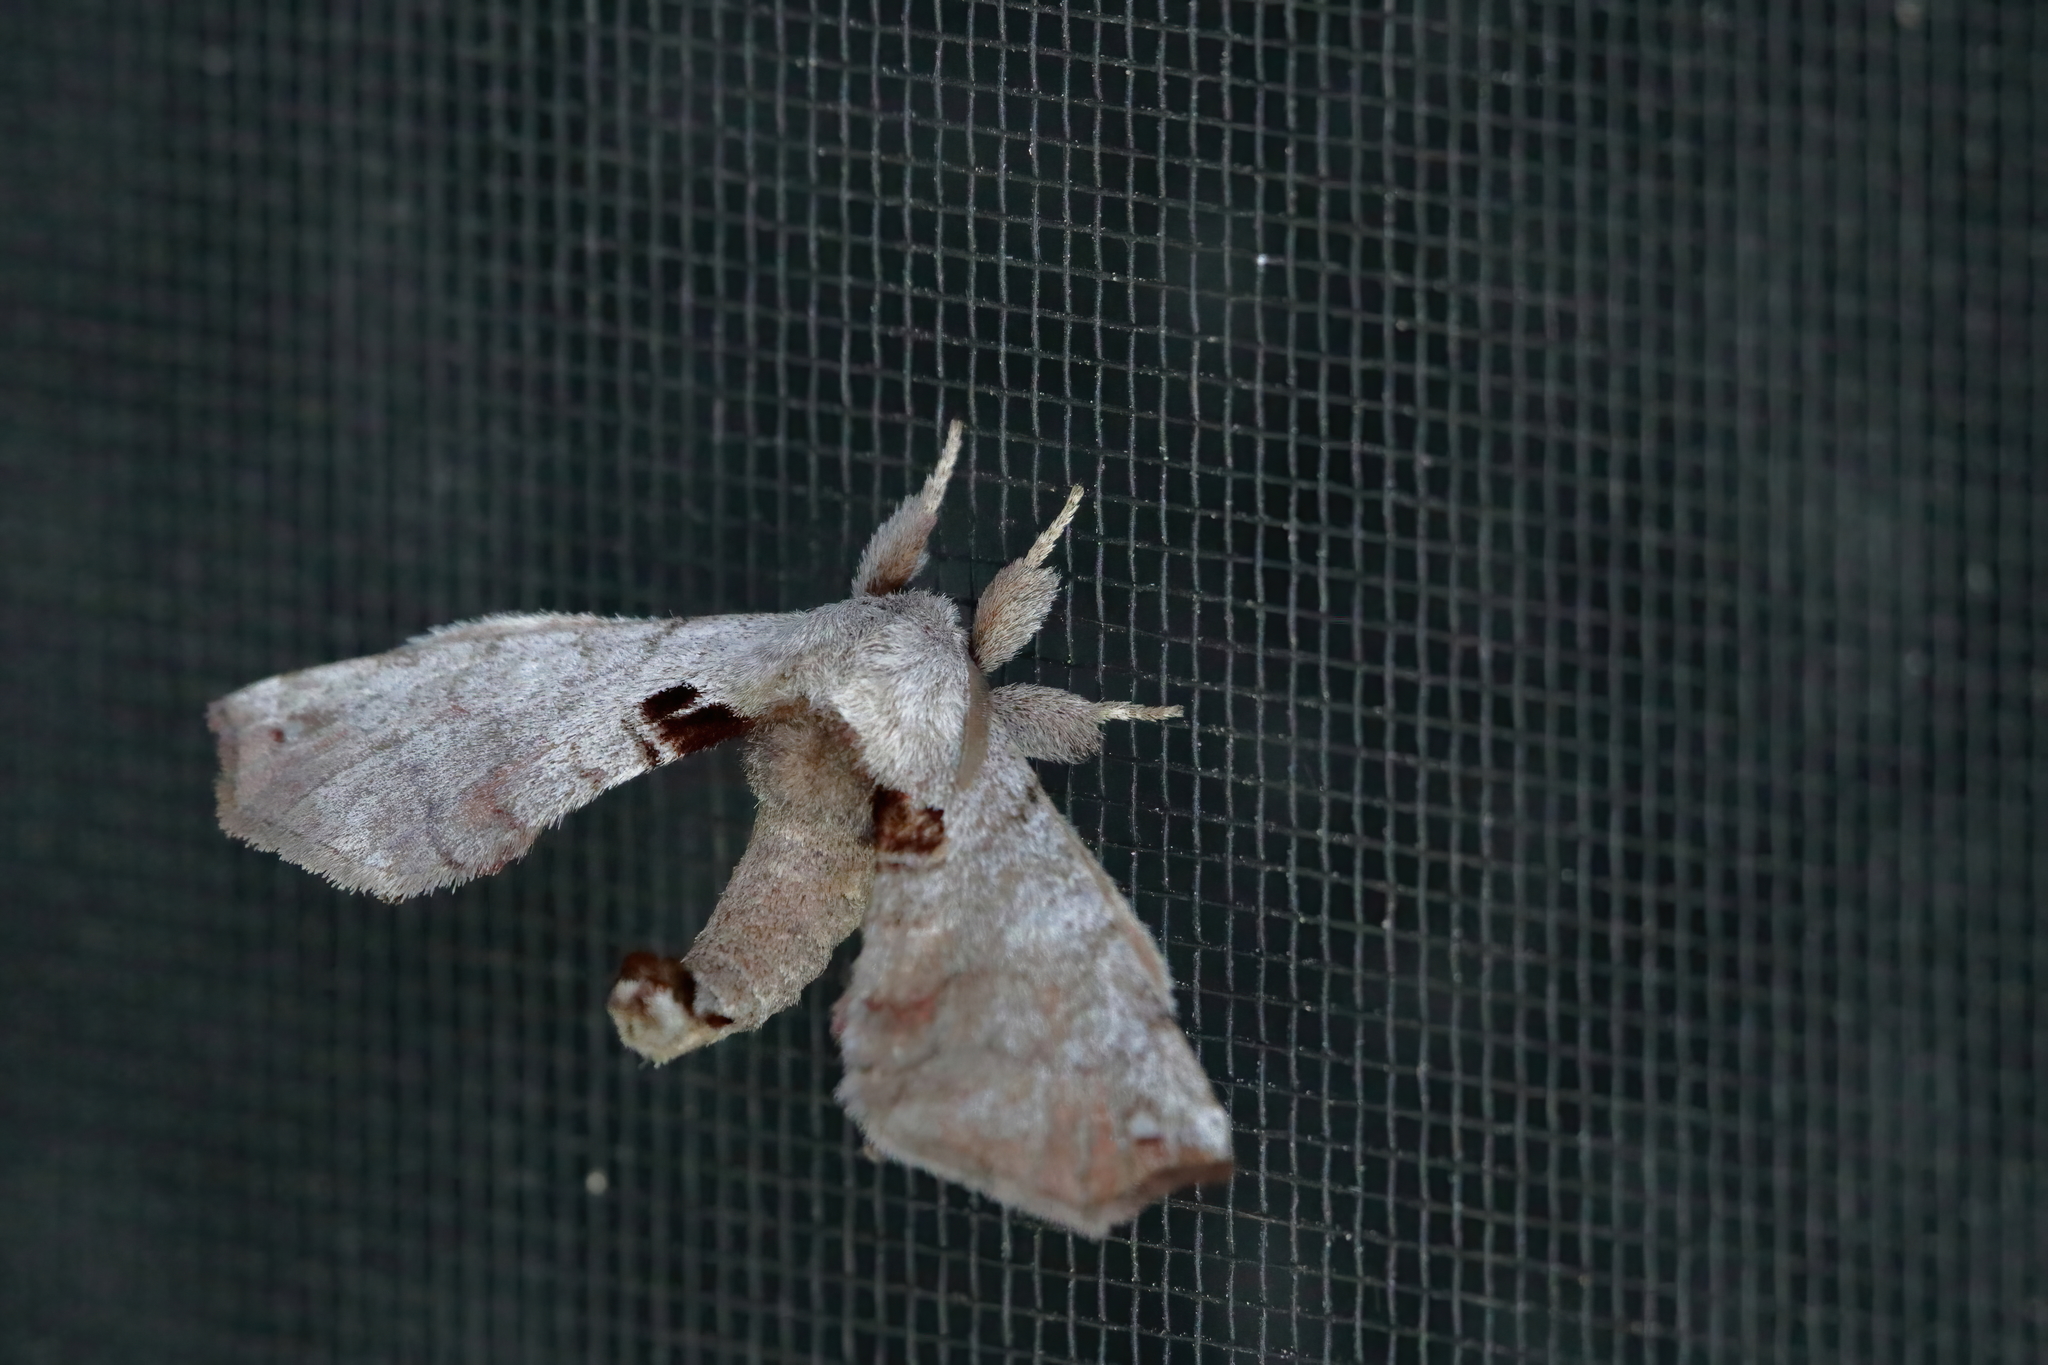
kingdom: Animalia
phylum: Arthropoda
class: Insecta
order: Lepidoptera
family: Apatelodidae
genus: Hygrochroa
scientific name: Hygrochroa Apatelodes torrefacta
